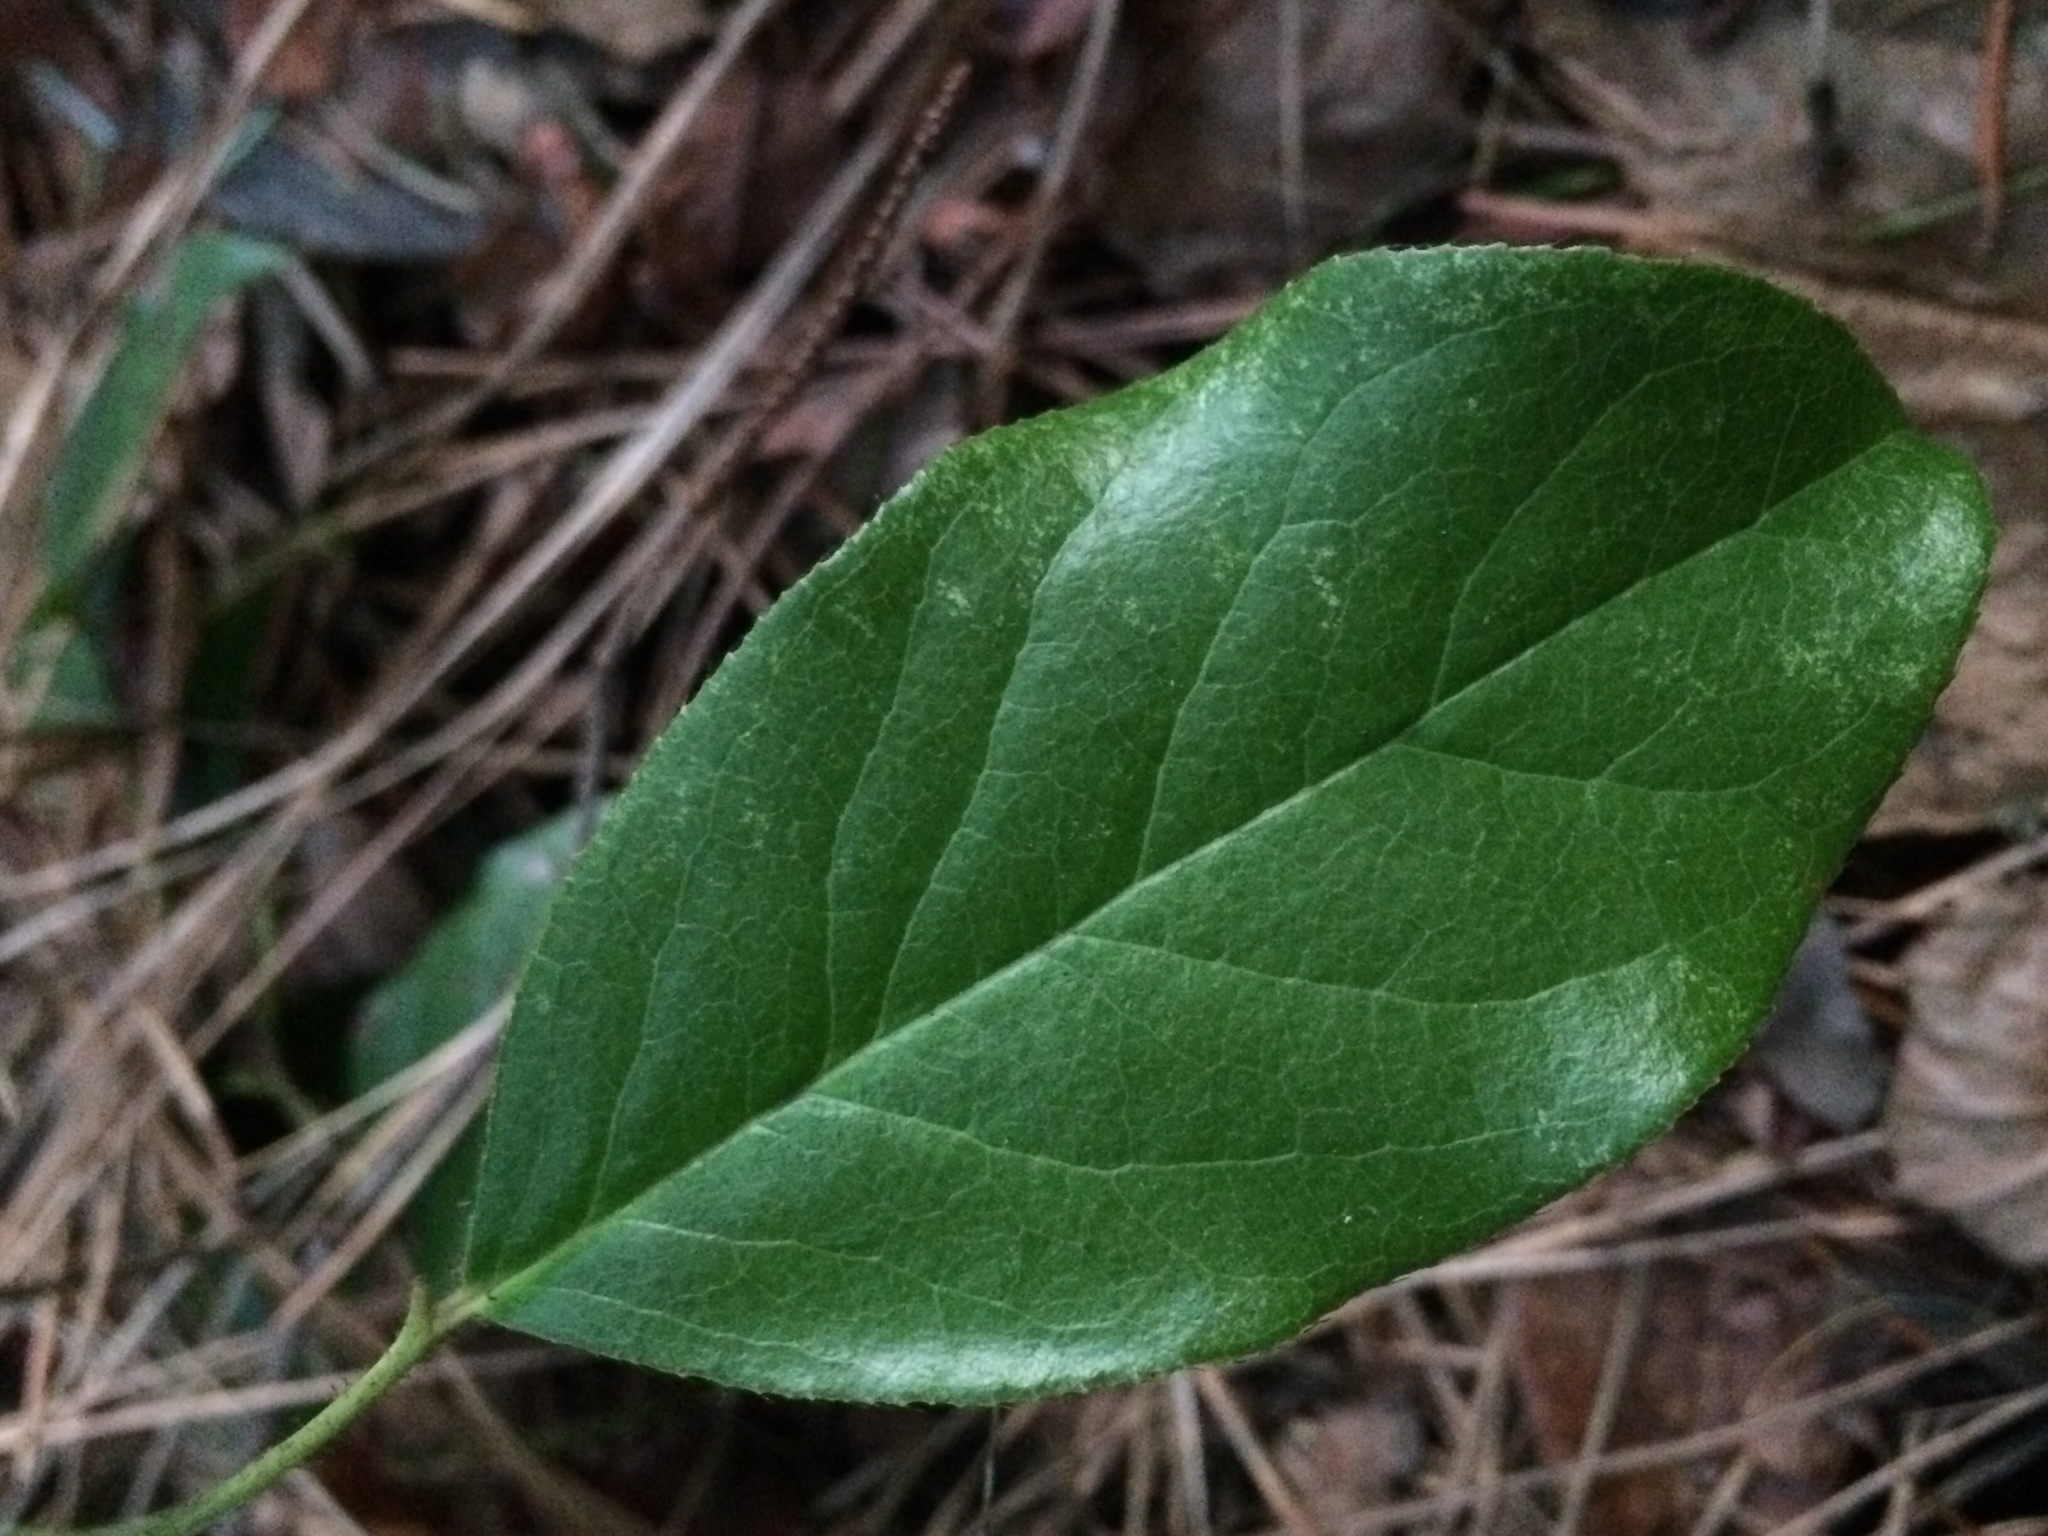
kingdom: Plantae
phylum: Tracheophyta
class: Magnoliopsida
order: Ericales
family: Ericaceae
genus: Gaultheria
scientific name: Gaultheria shallon
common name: Shallon
